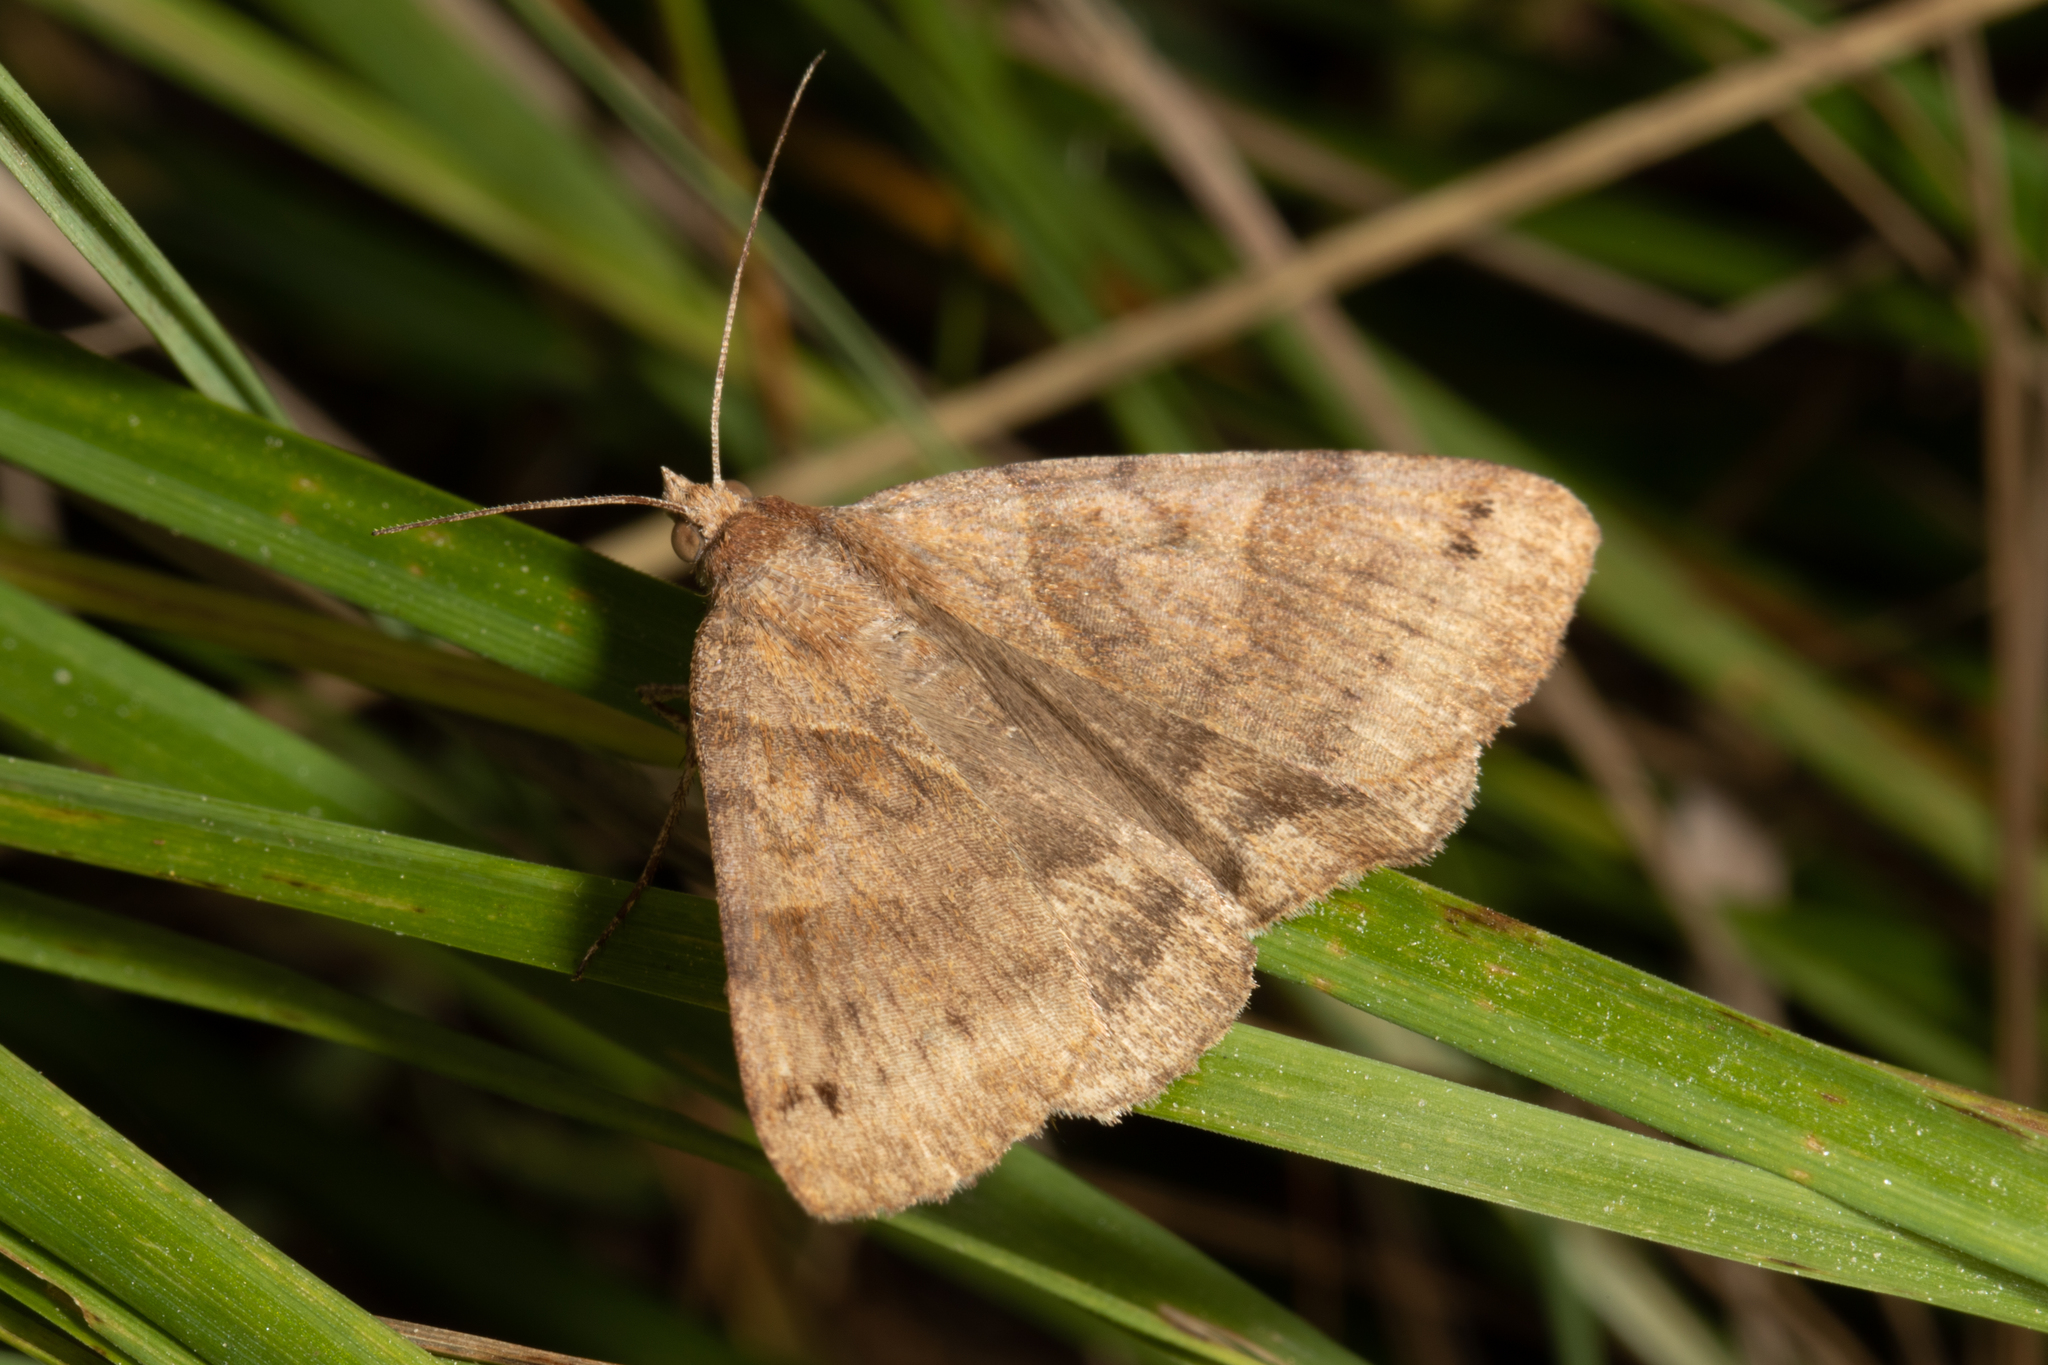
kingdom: Animalia
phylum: Arthropoda
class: Insecta
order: Lepidoptera
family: Erebidae
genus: Caenurgina
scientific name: Caenurgina crassiuscula
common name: Double-barred
